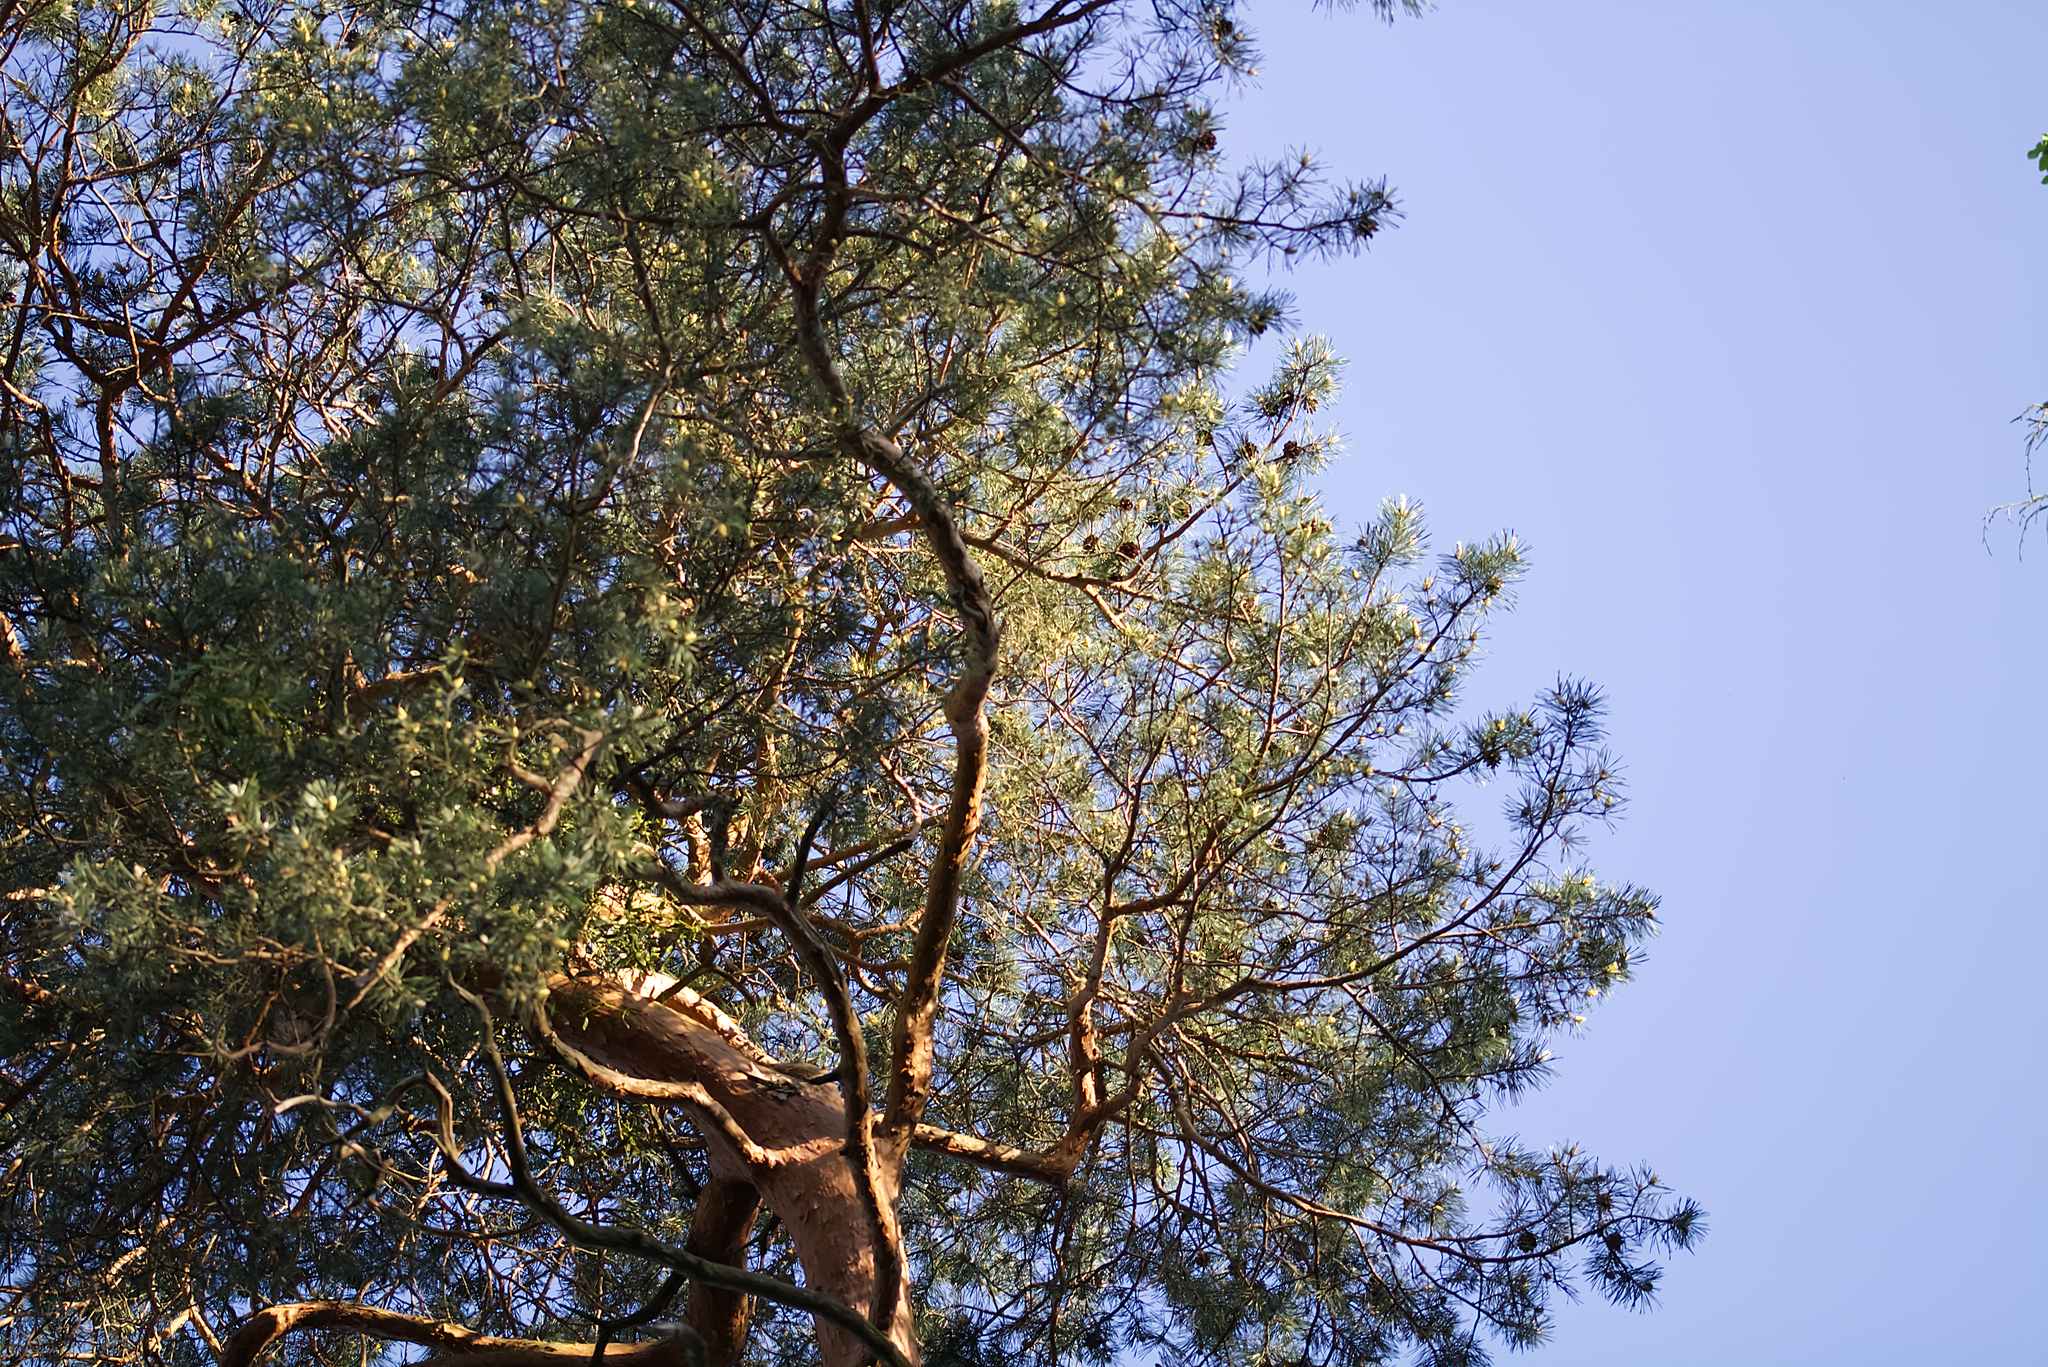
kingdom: Plantae
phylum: Tracheophyta
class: Pinopsida
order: Pinales
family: Pinaceae
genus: Pinus
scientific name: Pinus sylvestris
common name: Scots pine
